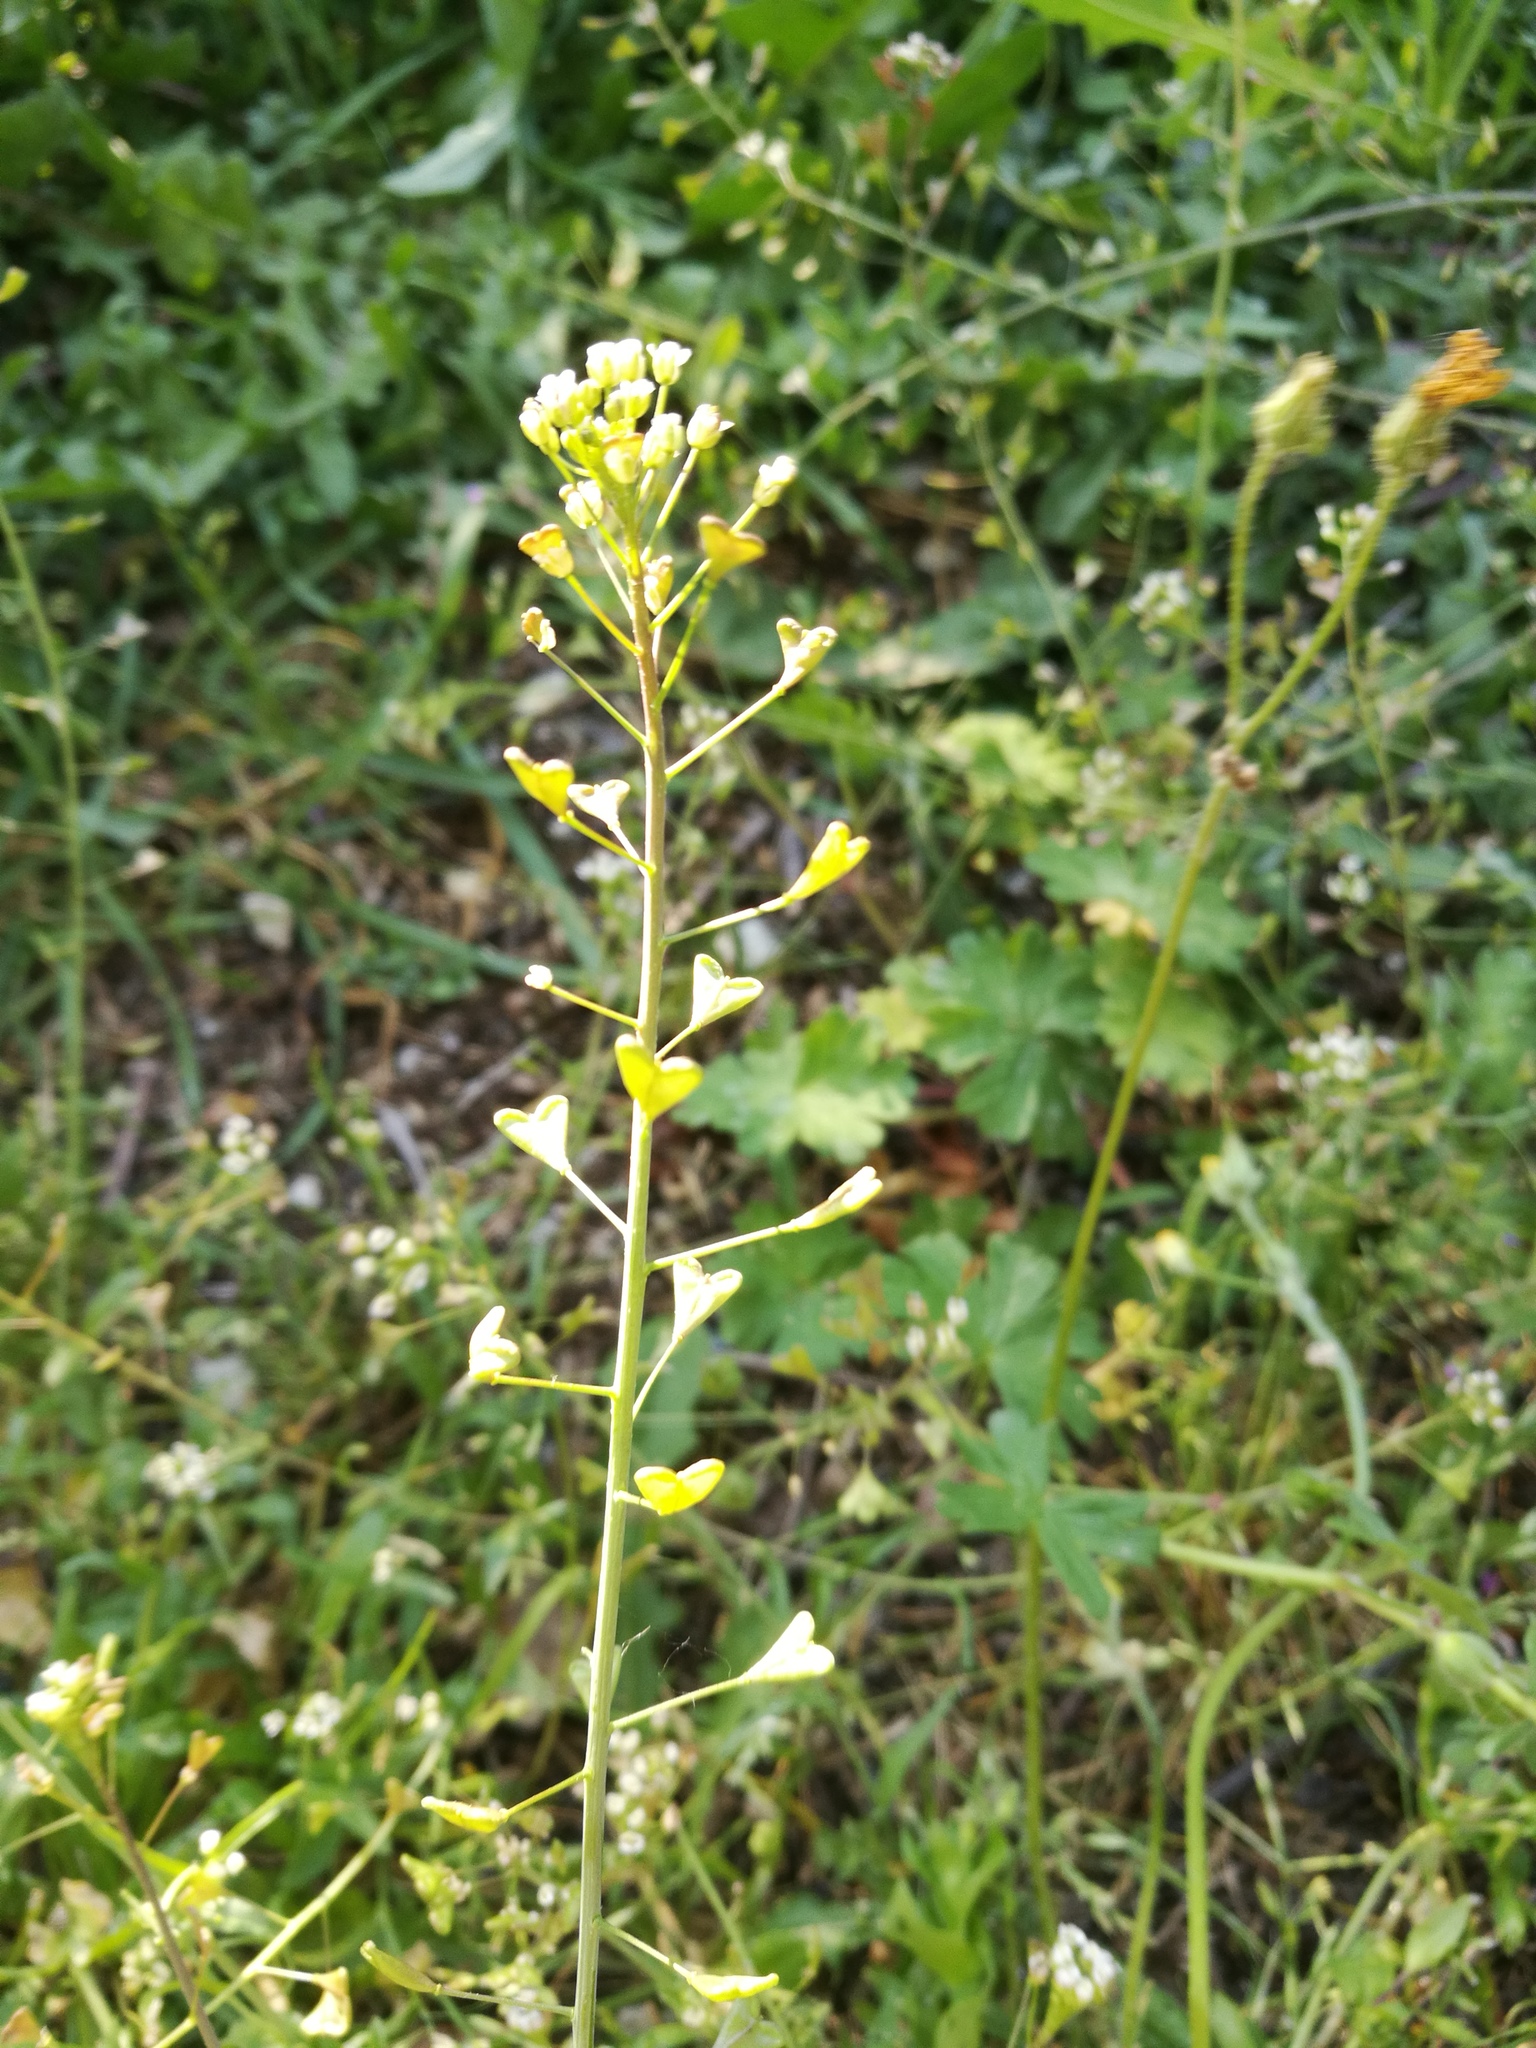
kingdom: Plantae
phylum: Tracheophyta
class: Magnoliopsida
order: Brassicales
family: Brassicaceae
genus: Capsella
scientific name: Capsella rubella
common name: Pink shepherd's-purse
